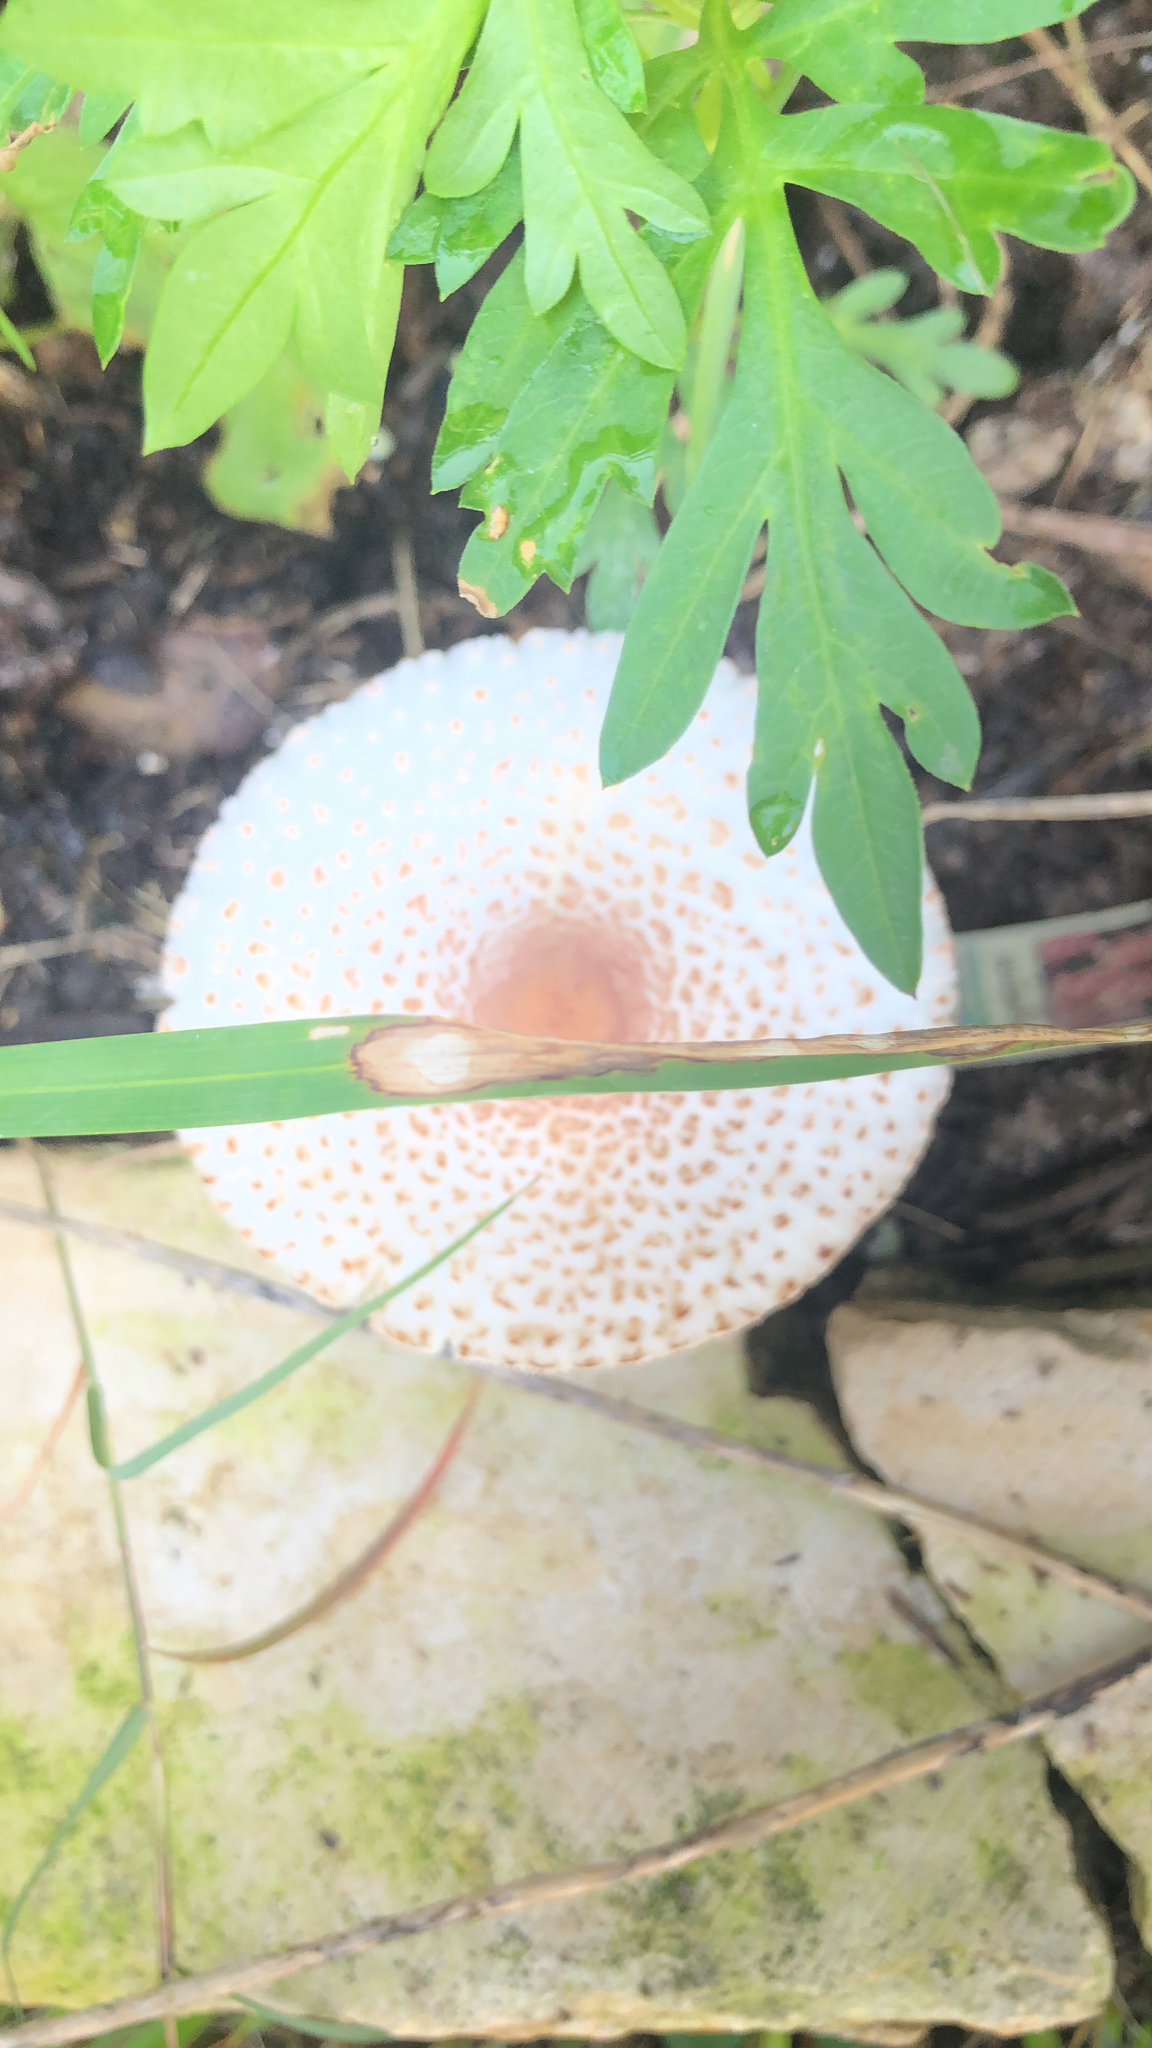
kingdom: Fungi
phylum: Basidiomycota
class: Agaricomycetes
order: Agaricales
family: Agaricaceae
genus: Leucoagaricus
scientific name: Leucoagaricus americanus
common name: Reddening lepiota
